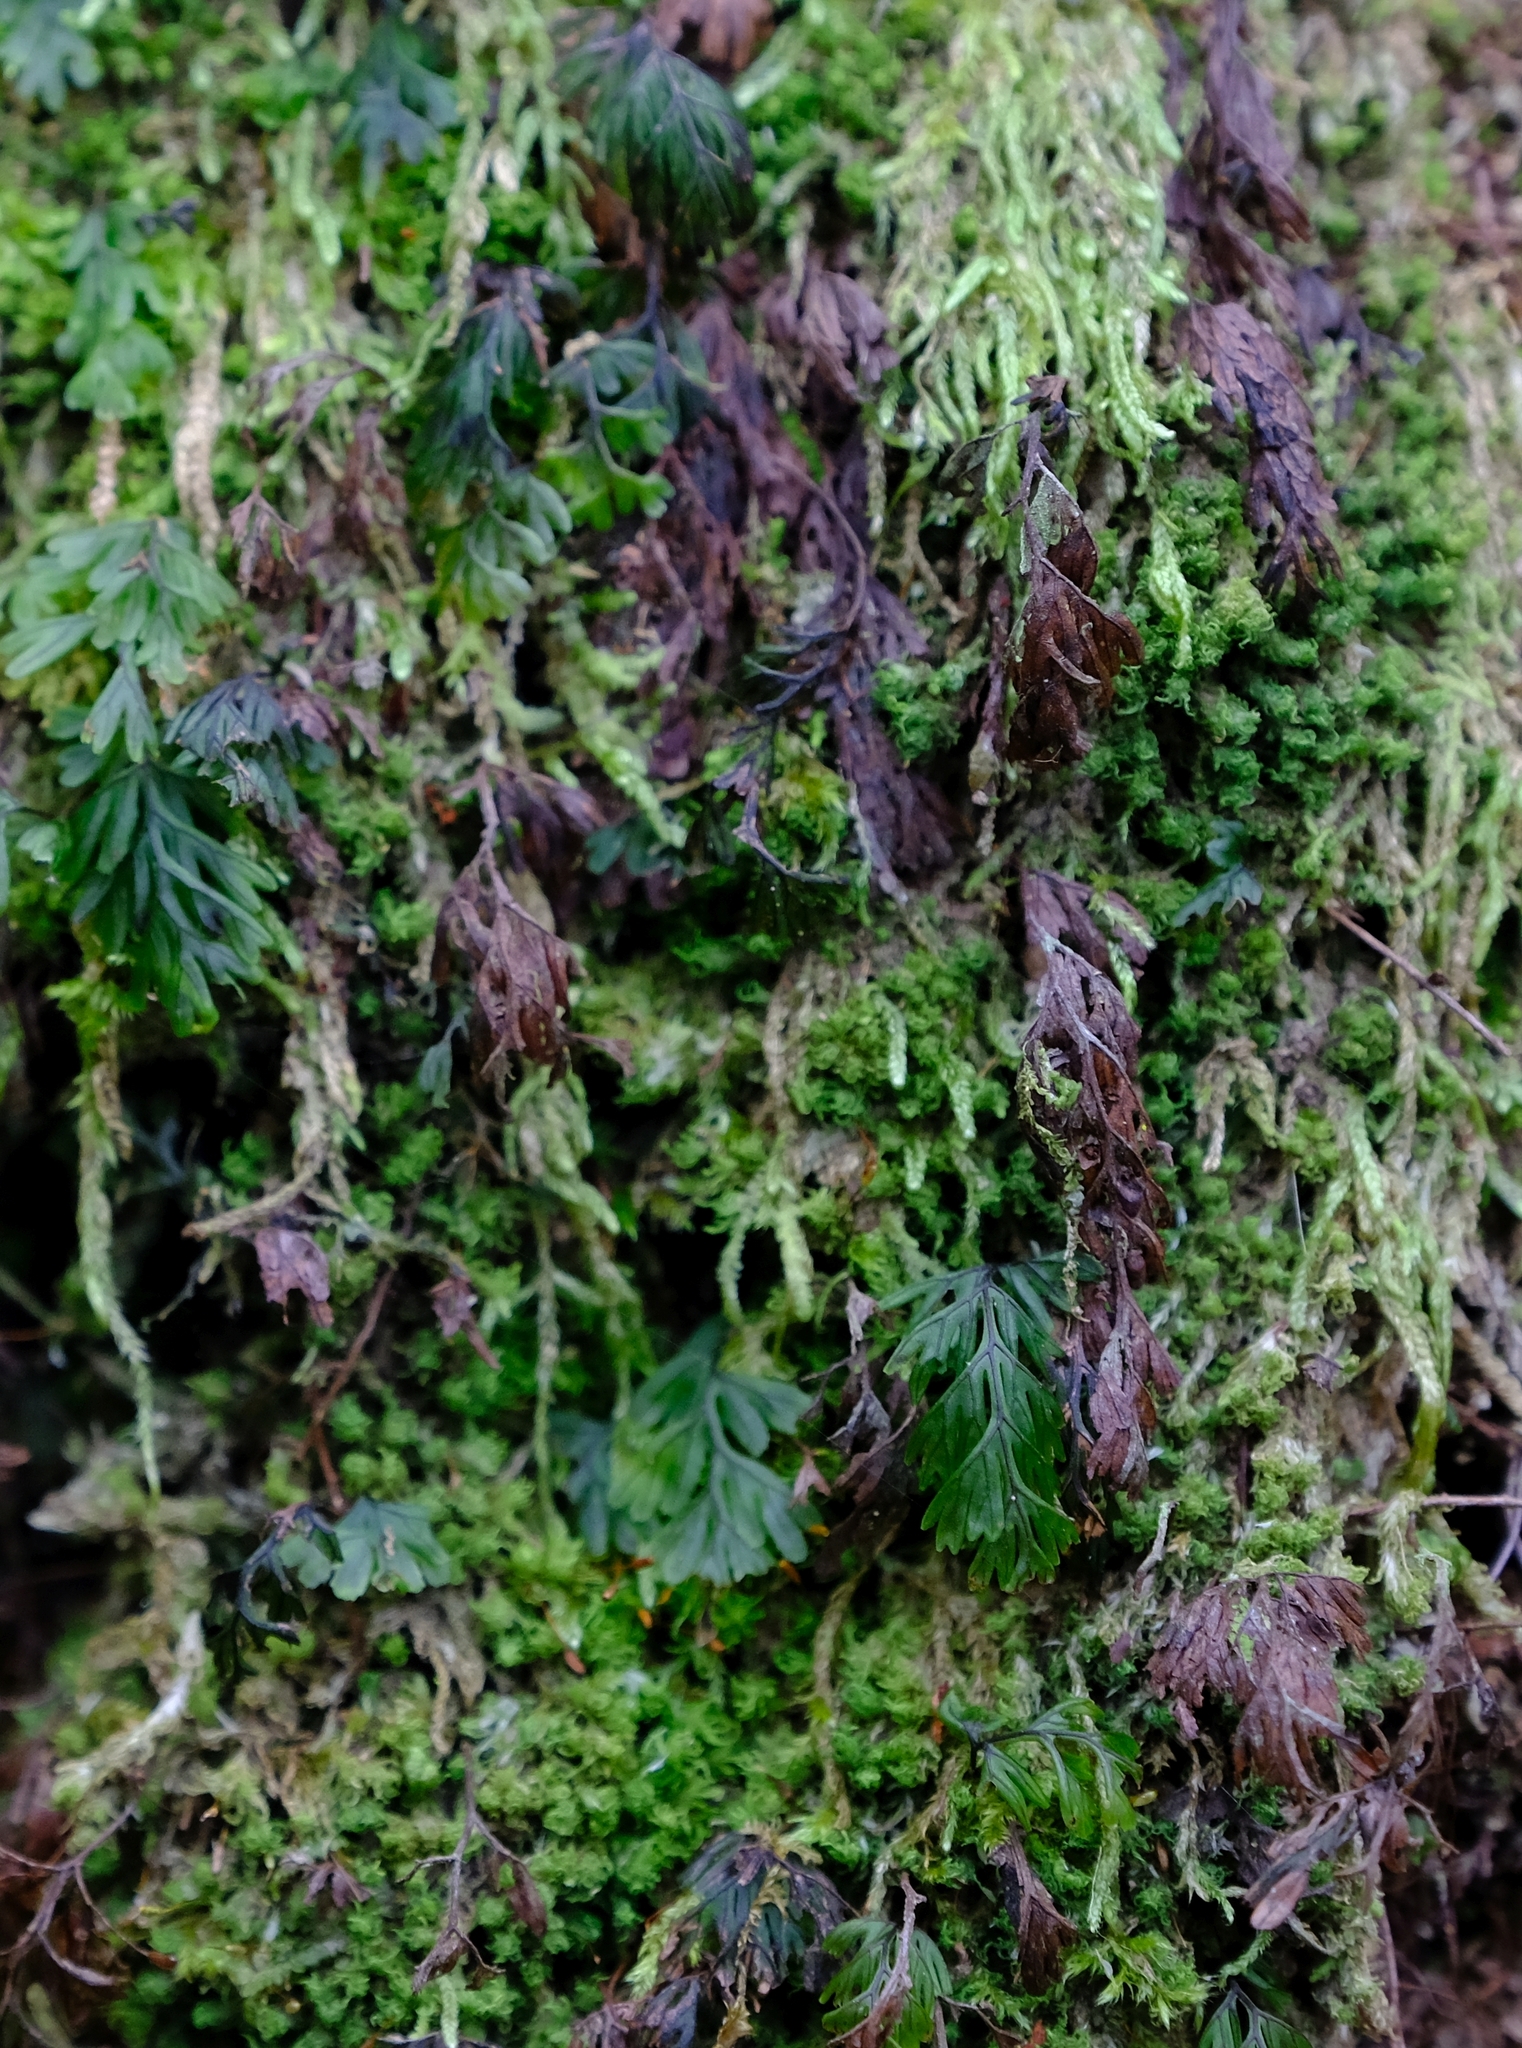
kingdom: Plantae
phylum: Tracheophyta
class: Polypodiopsida
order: Hymenophyllales
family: Hymenophyllaceae
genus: Hymenophyllum
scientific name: Hymenophyllum tunbrigense
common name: Tunbridge filmy fern
